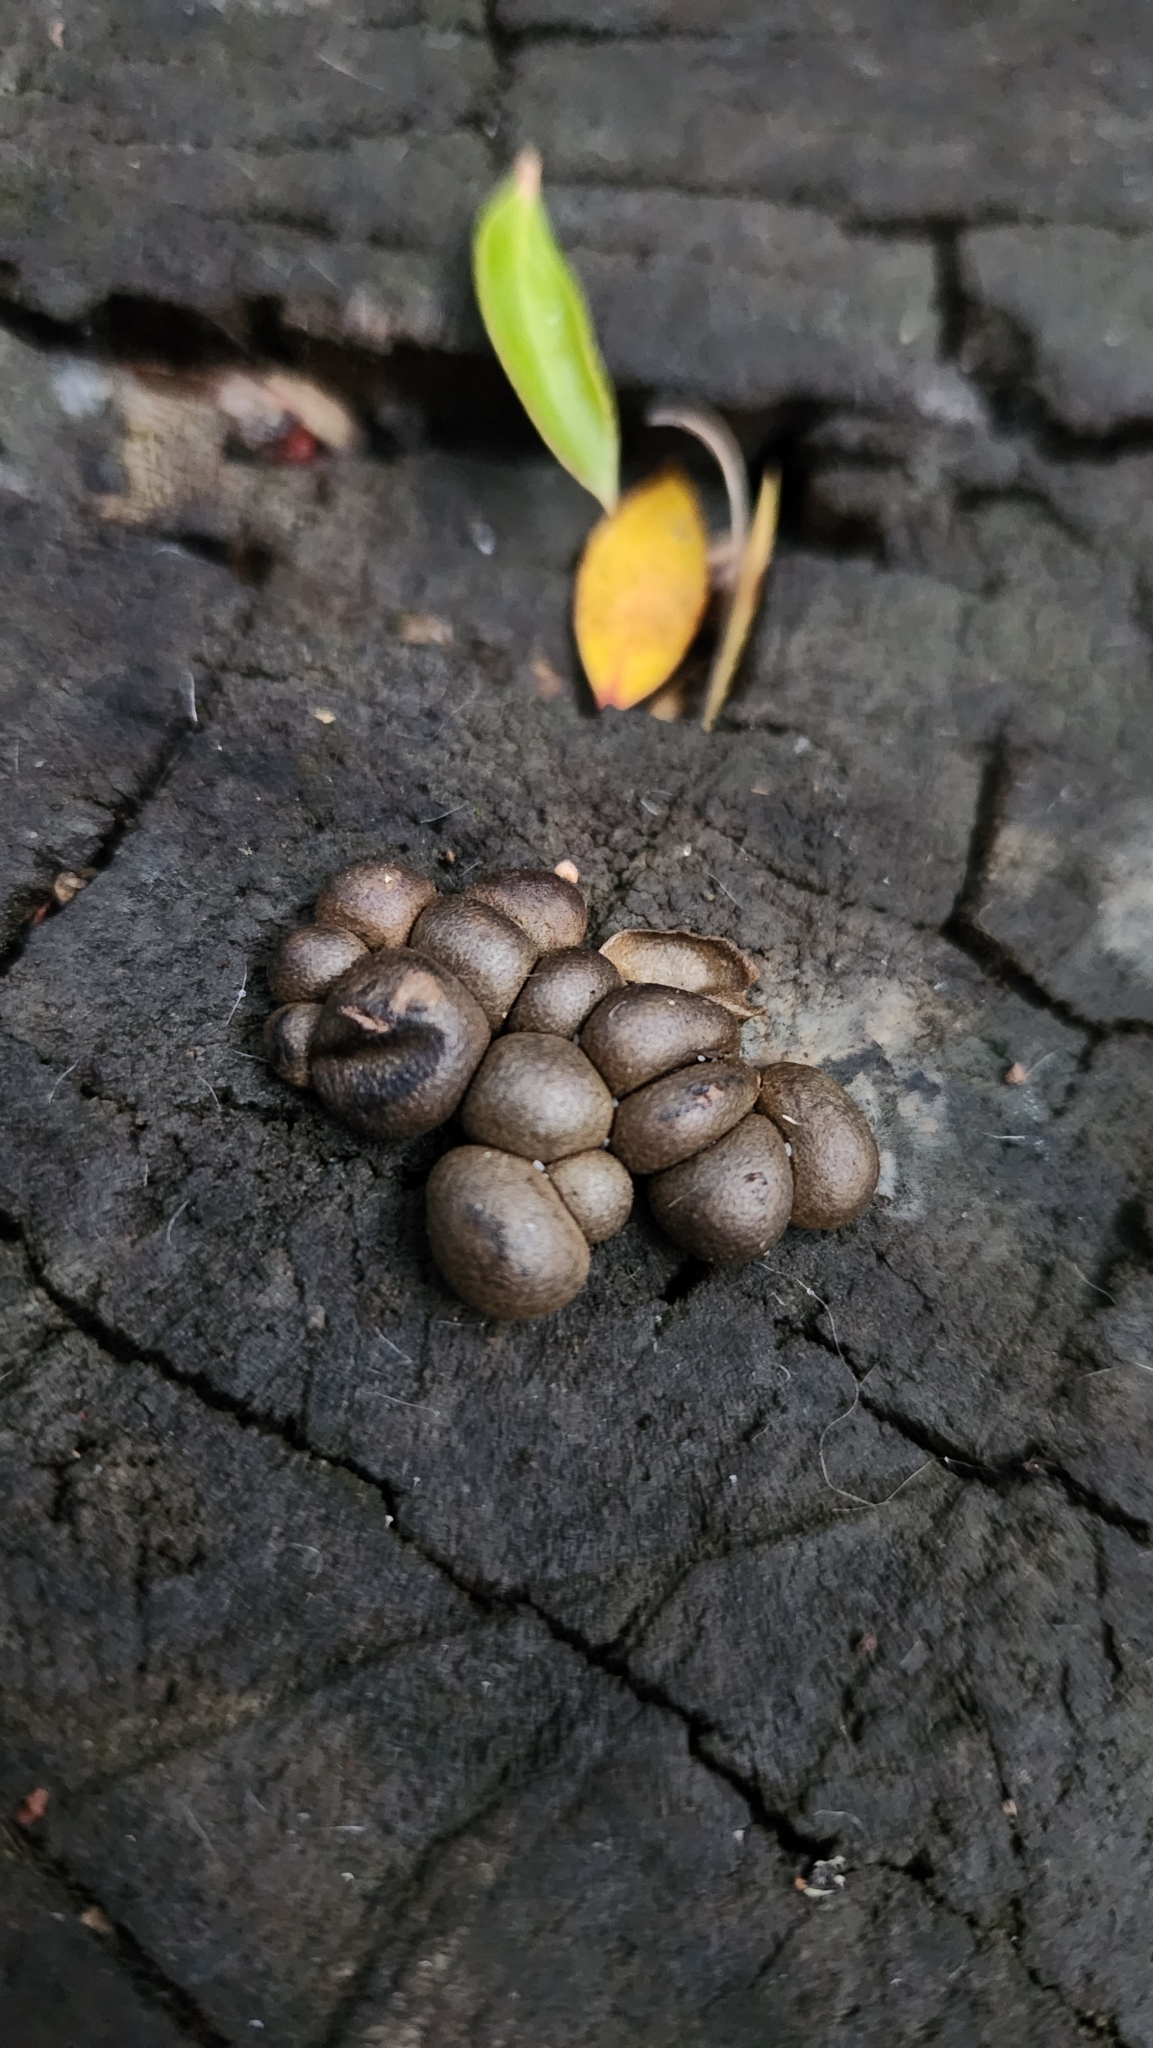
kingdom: Protozoa
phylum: Mycetozoa
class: Myxomycetes
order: Cribrariales
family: Tubiferaceae
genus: Lycogala
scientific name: Lycogala epidendrum
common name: Wolf's milk
